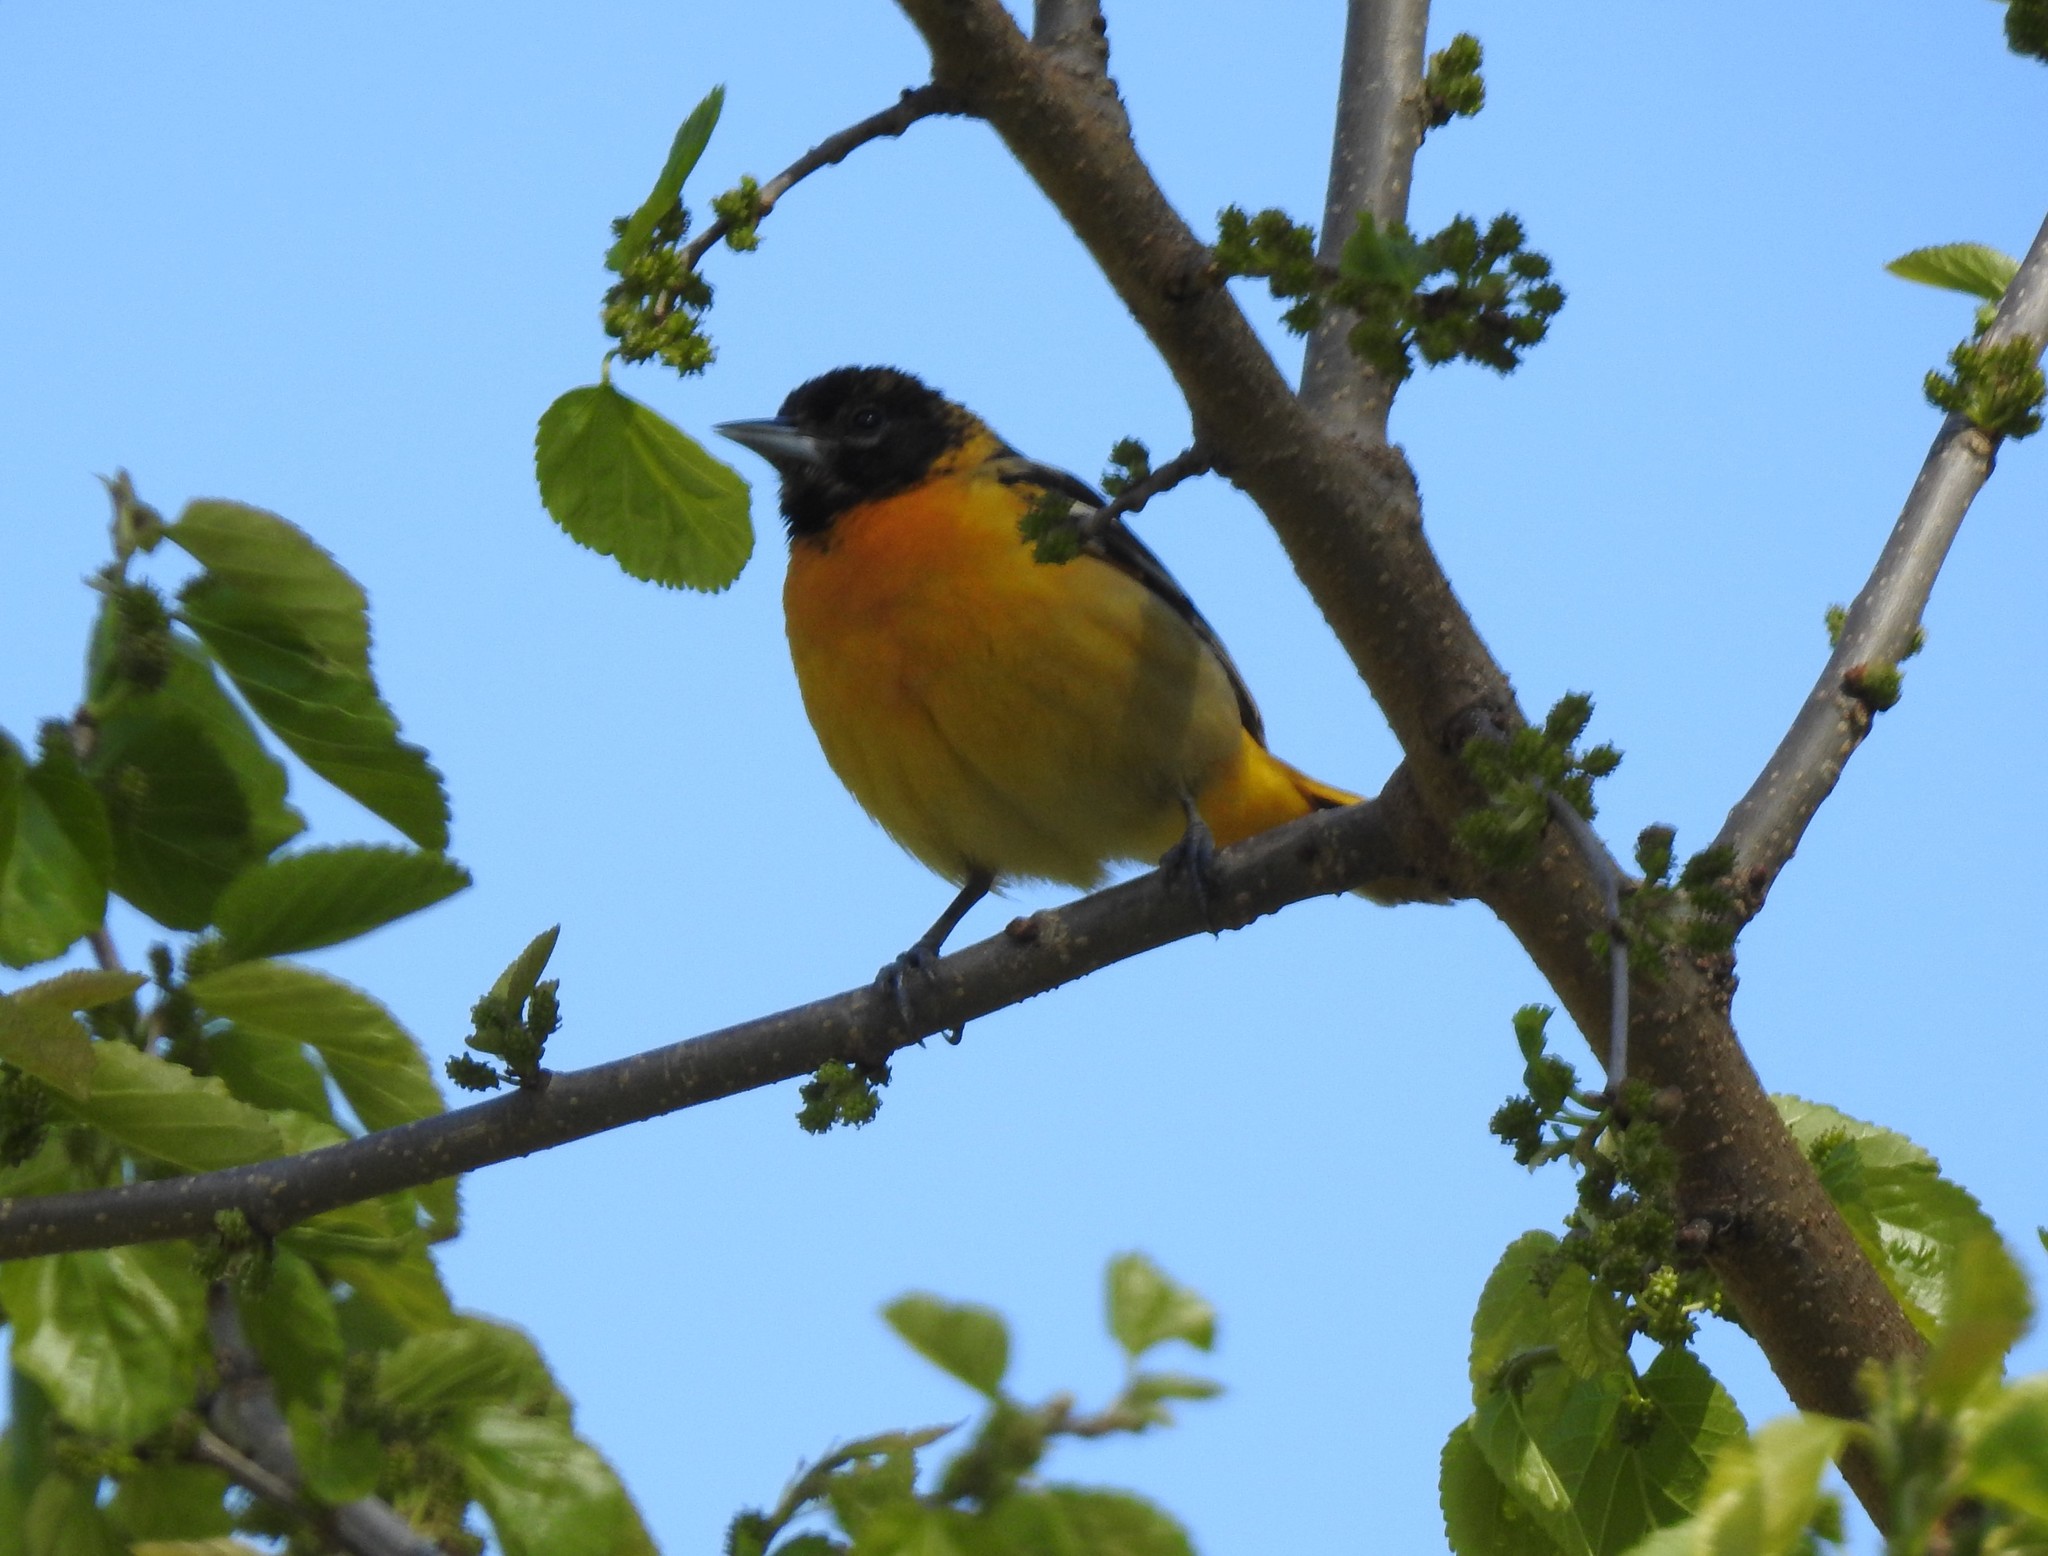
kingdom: Animalia
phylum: Chordata
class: Aves
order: Passeriformes
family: Icteridae
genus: Icterus
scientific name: Icterus galbula
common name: Baltimore oriole
